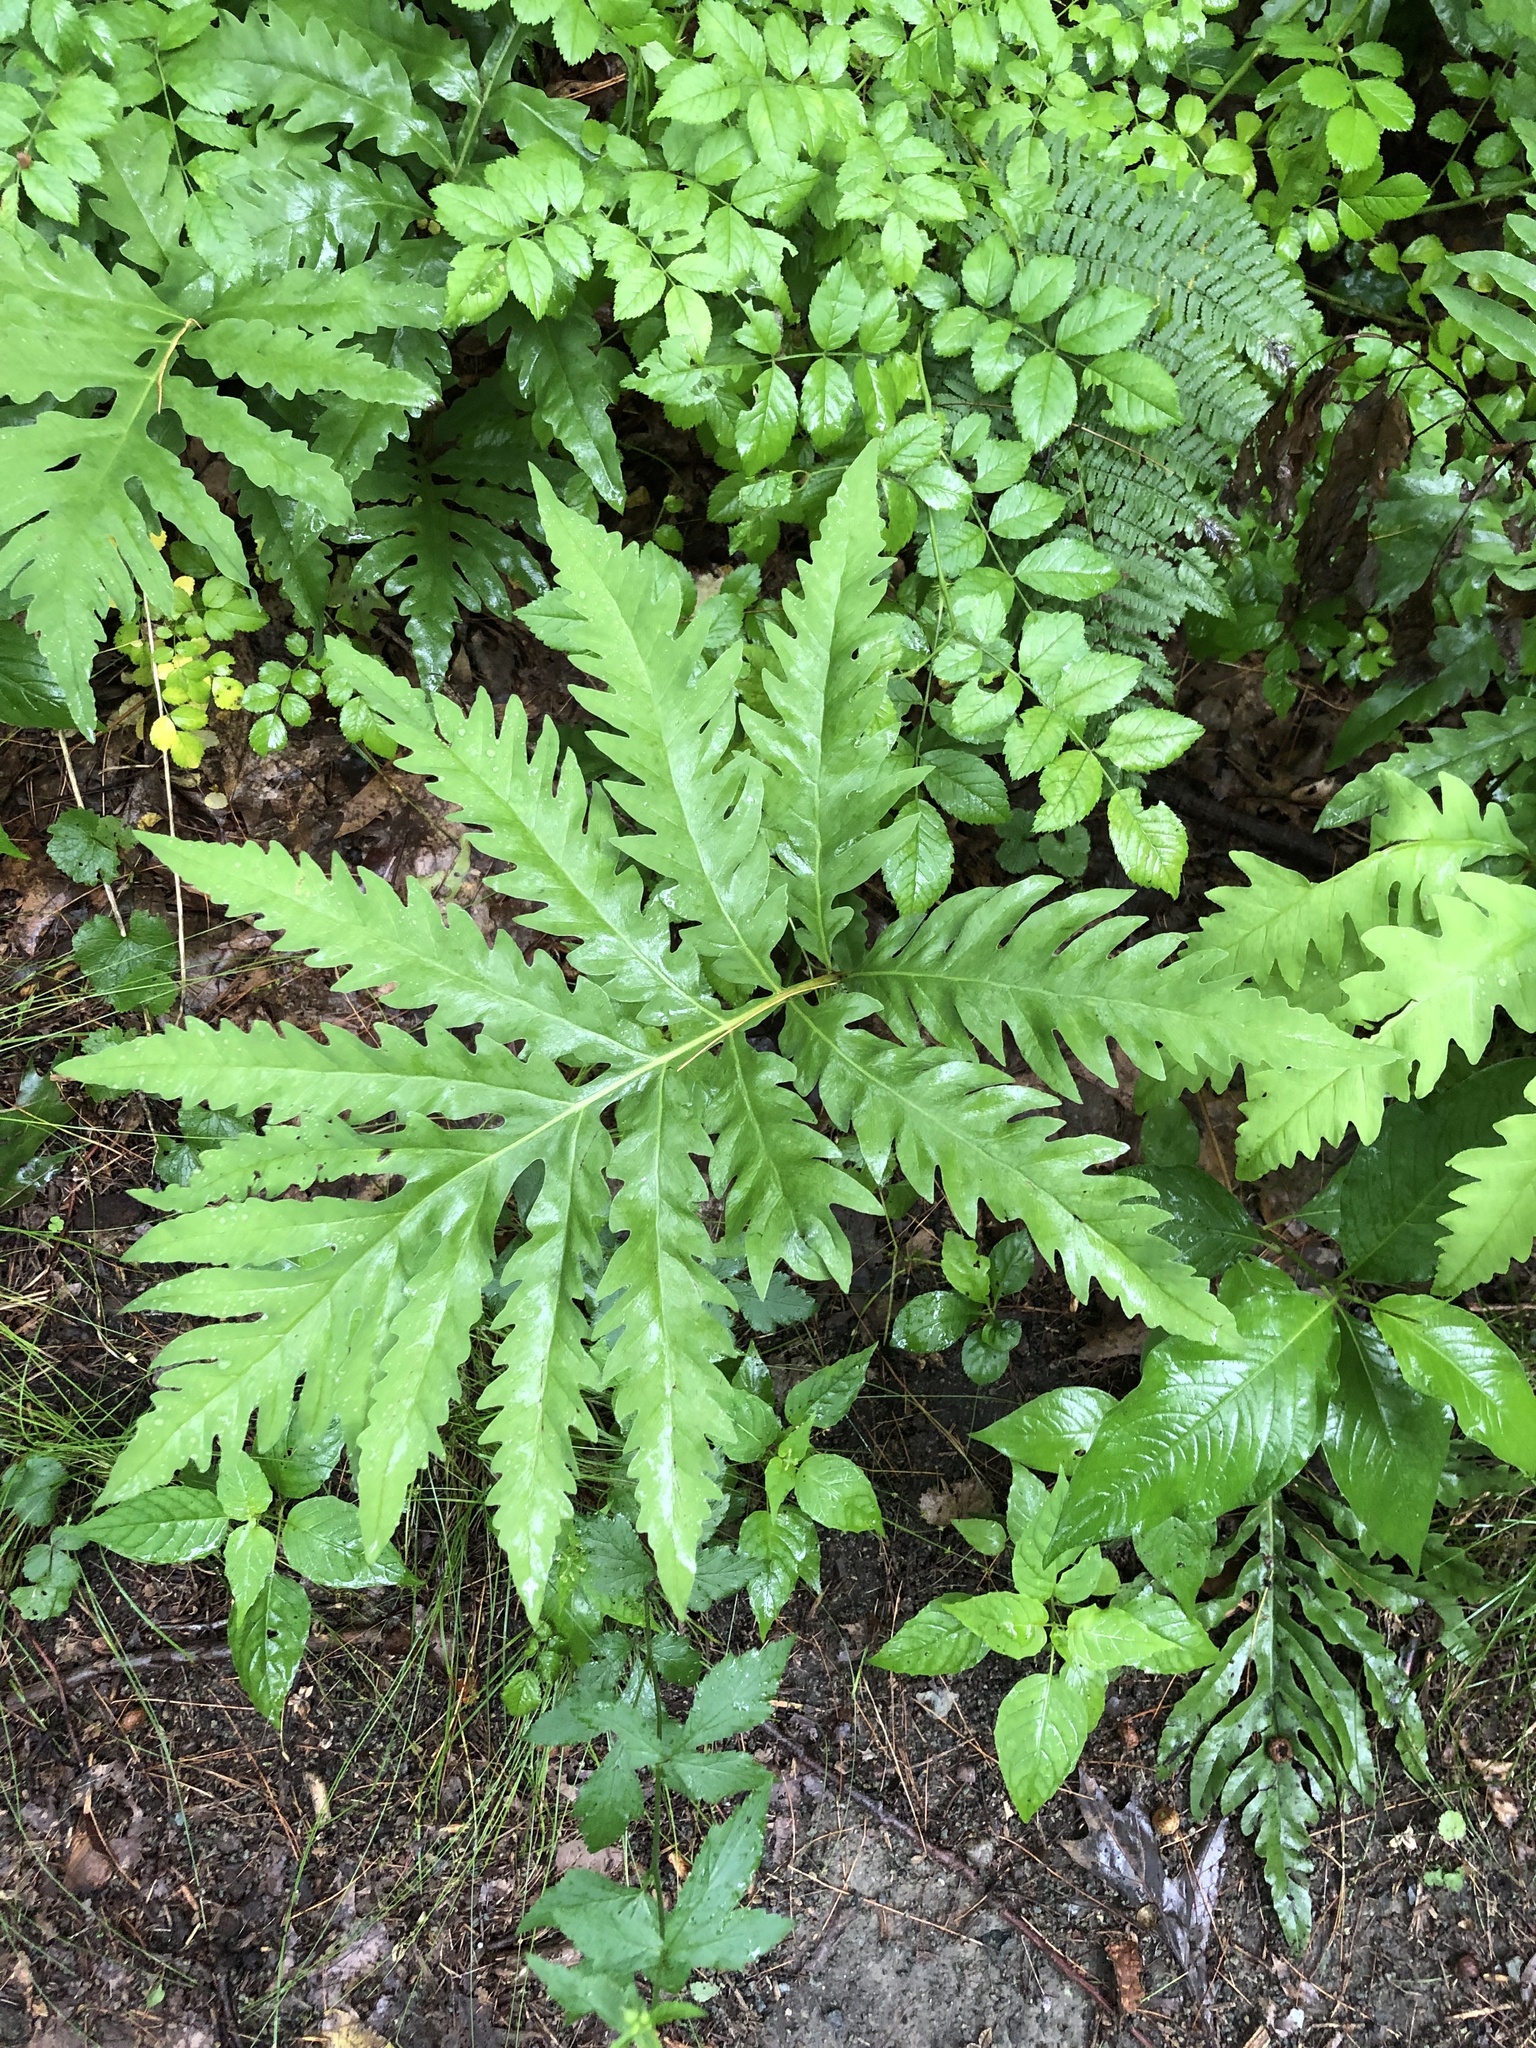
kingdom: Plantae
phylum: Tracheophyta
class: Polypodiopsida
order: Polypodiales
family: Onocleaceae
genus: Onoclea
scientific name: Onoclea sensibilis
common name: Sensitive fern
